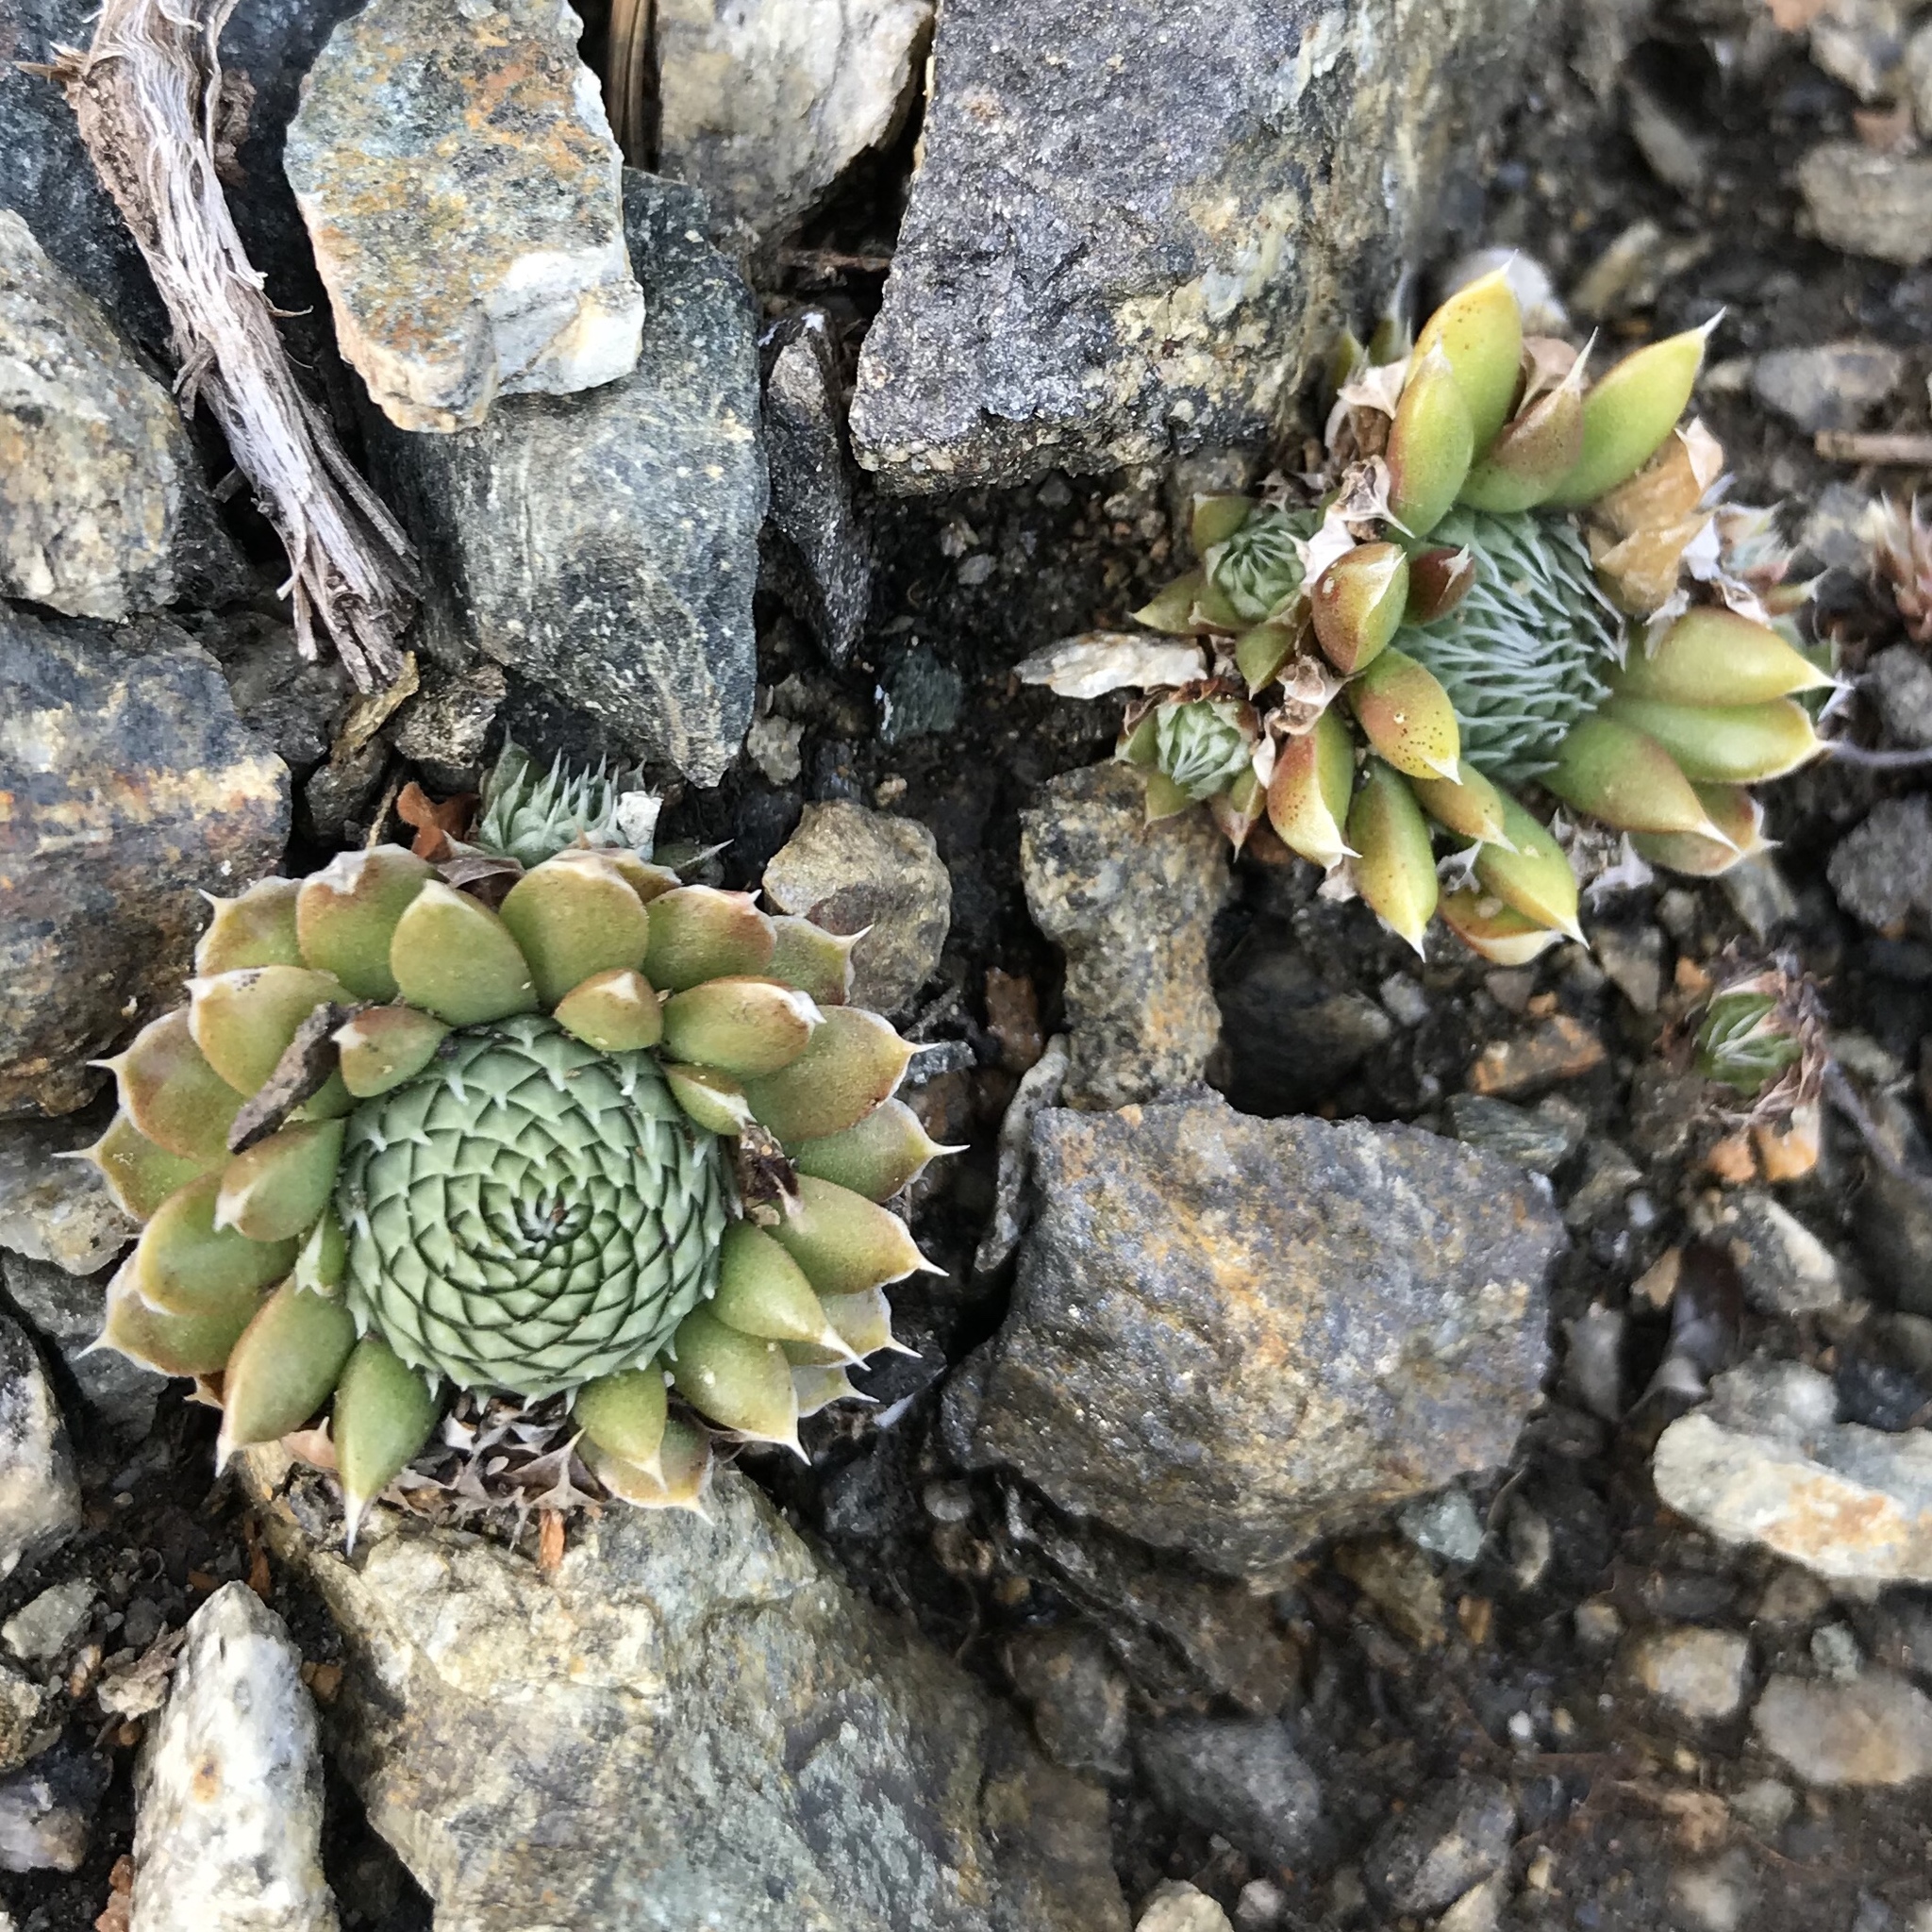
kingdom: Plantae
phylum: Tracheophyta
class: Magnoliopsida
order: Saxifragales
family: Crassulaceae
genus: Orostachys
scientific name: Orostachys spinosa
